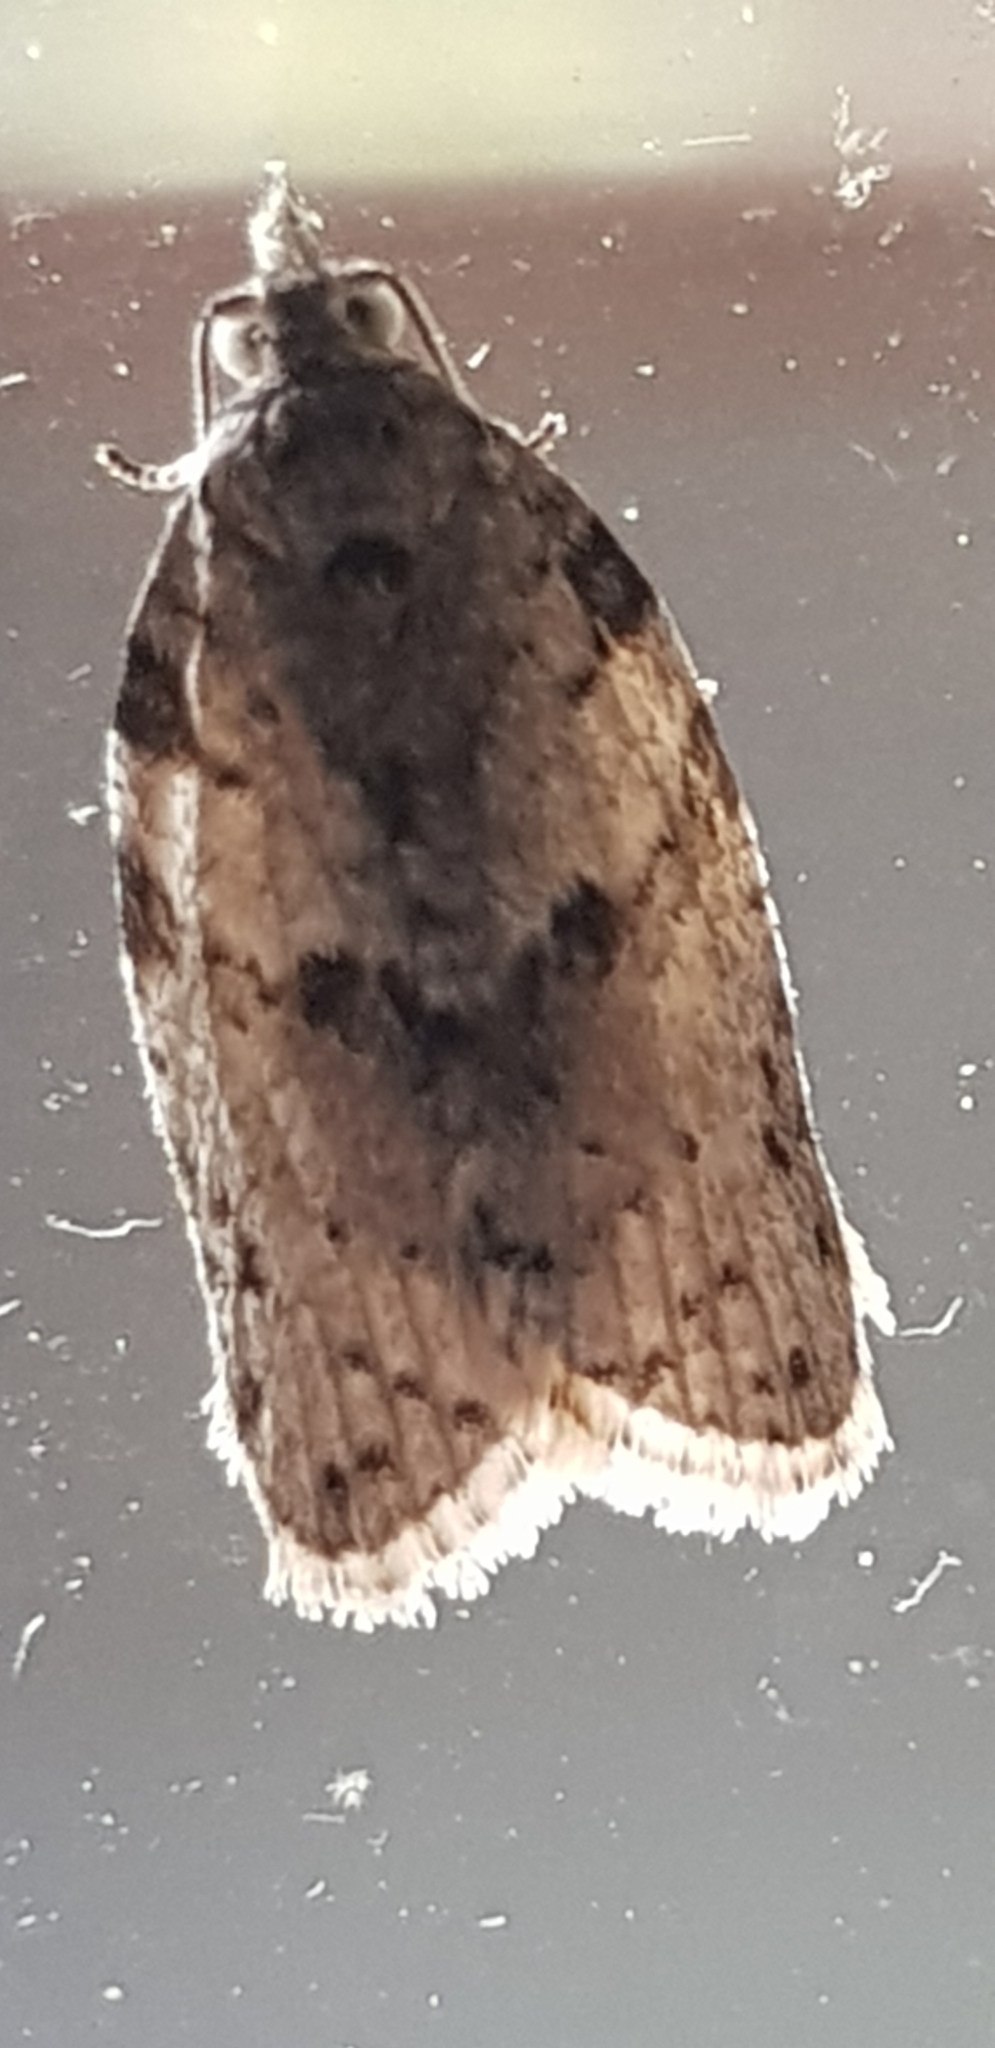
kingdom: Animalia
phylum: Arthropoda
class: Insecta
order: Lepidoptera
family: Tortricidae
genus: Isotenes
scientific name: Isotenes miserana
